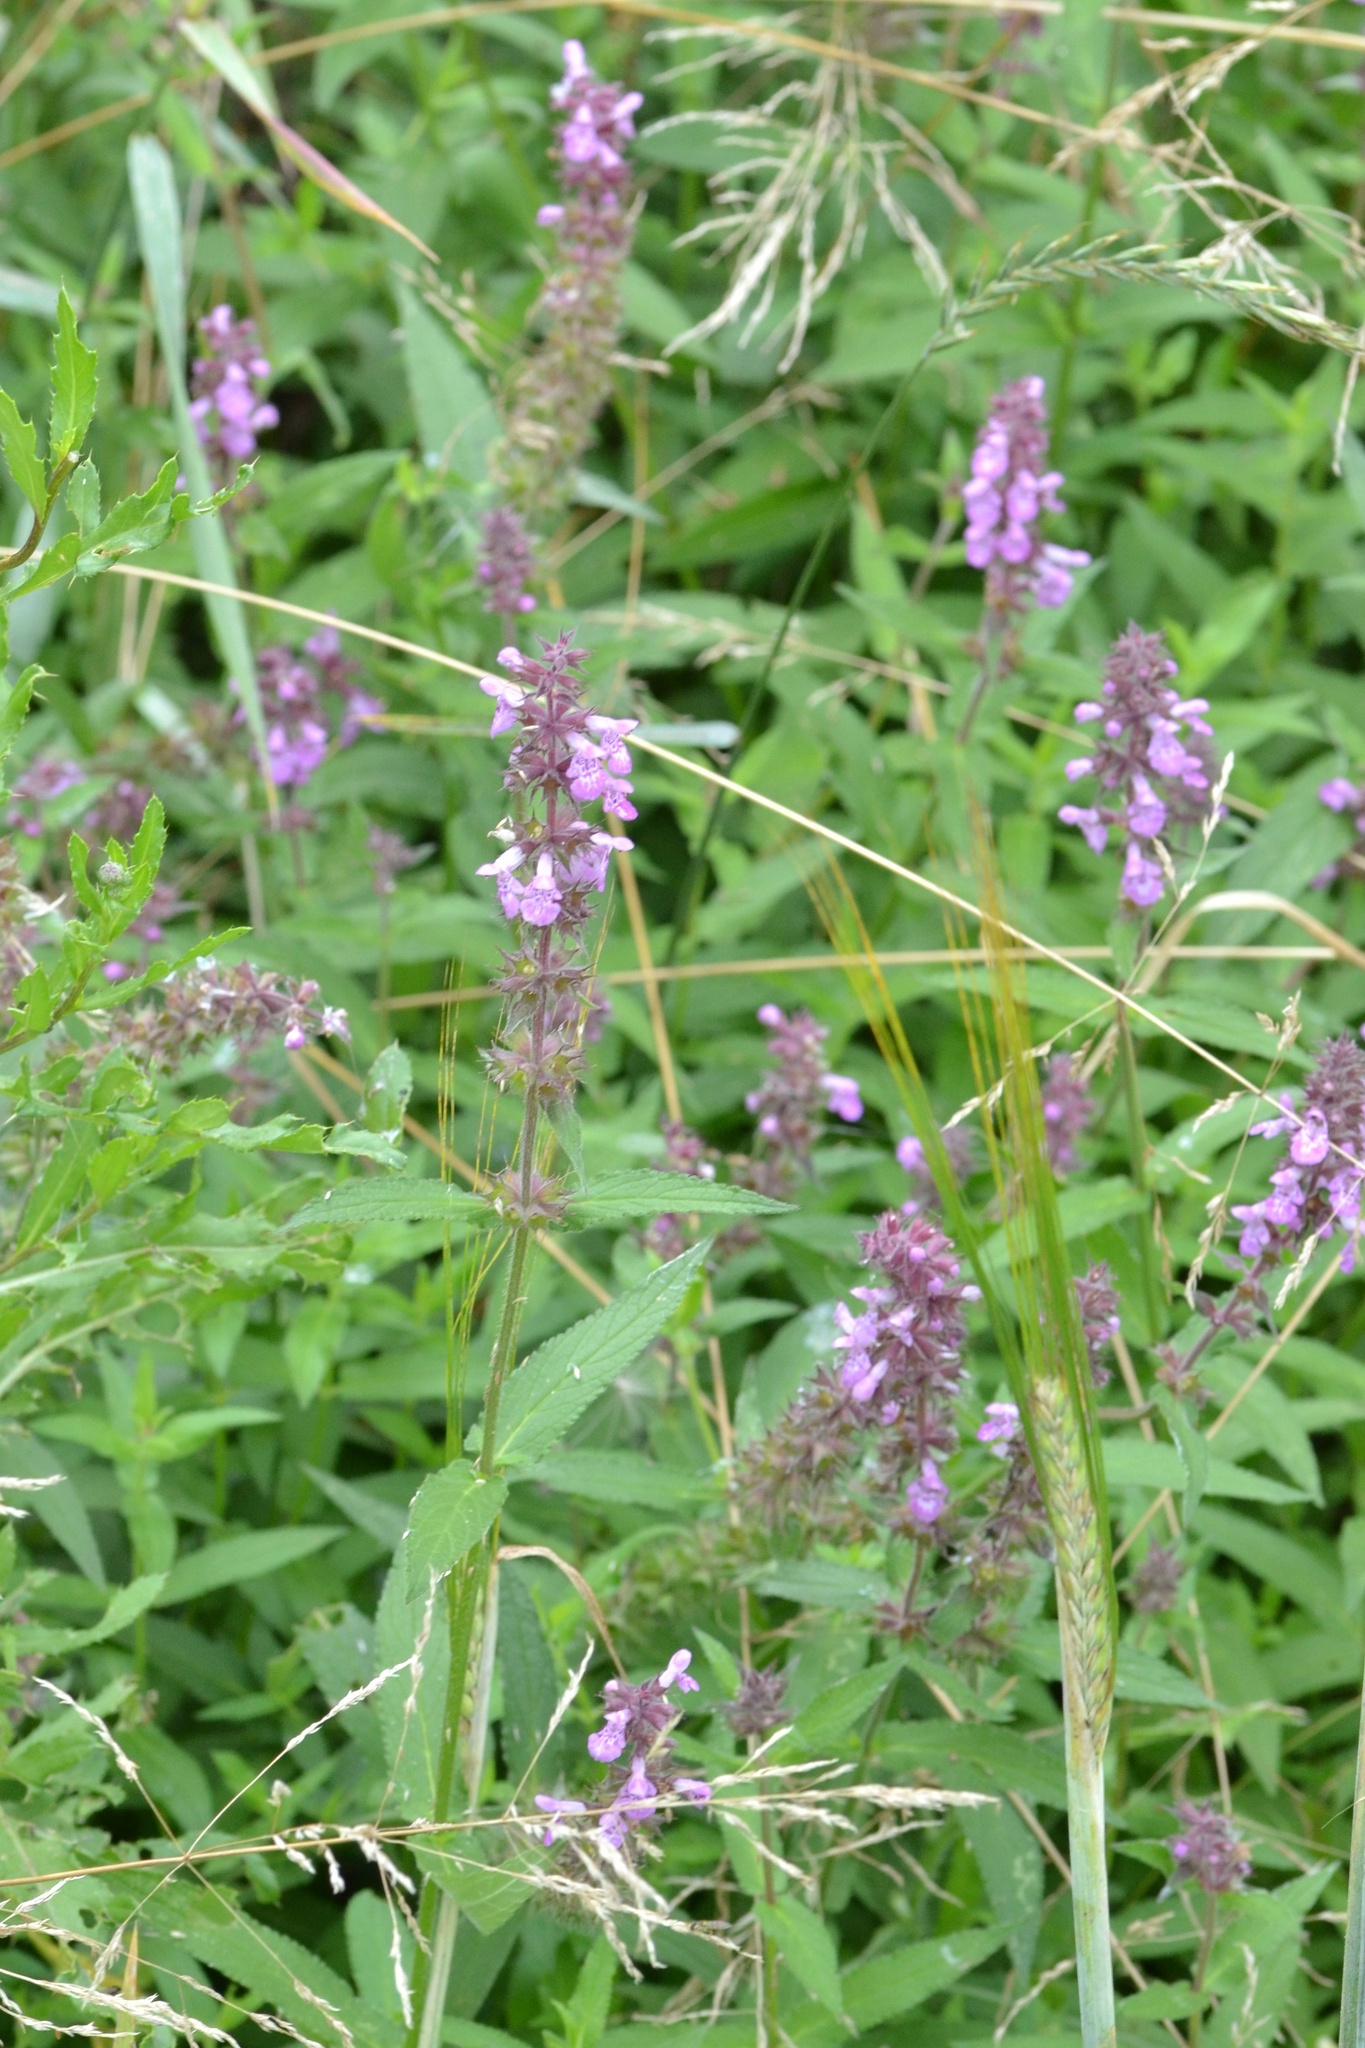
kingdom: Plantae
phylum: Tracheophyta
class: Magnoliopsida
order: Lamiales
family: Lamiaceae
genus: Stachys
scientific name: Stachys palustris
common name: Marsh woundwort
